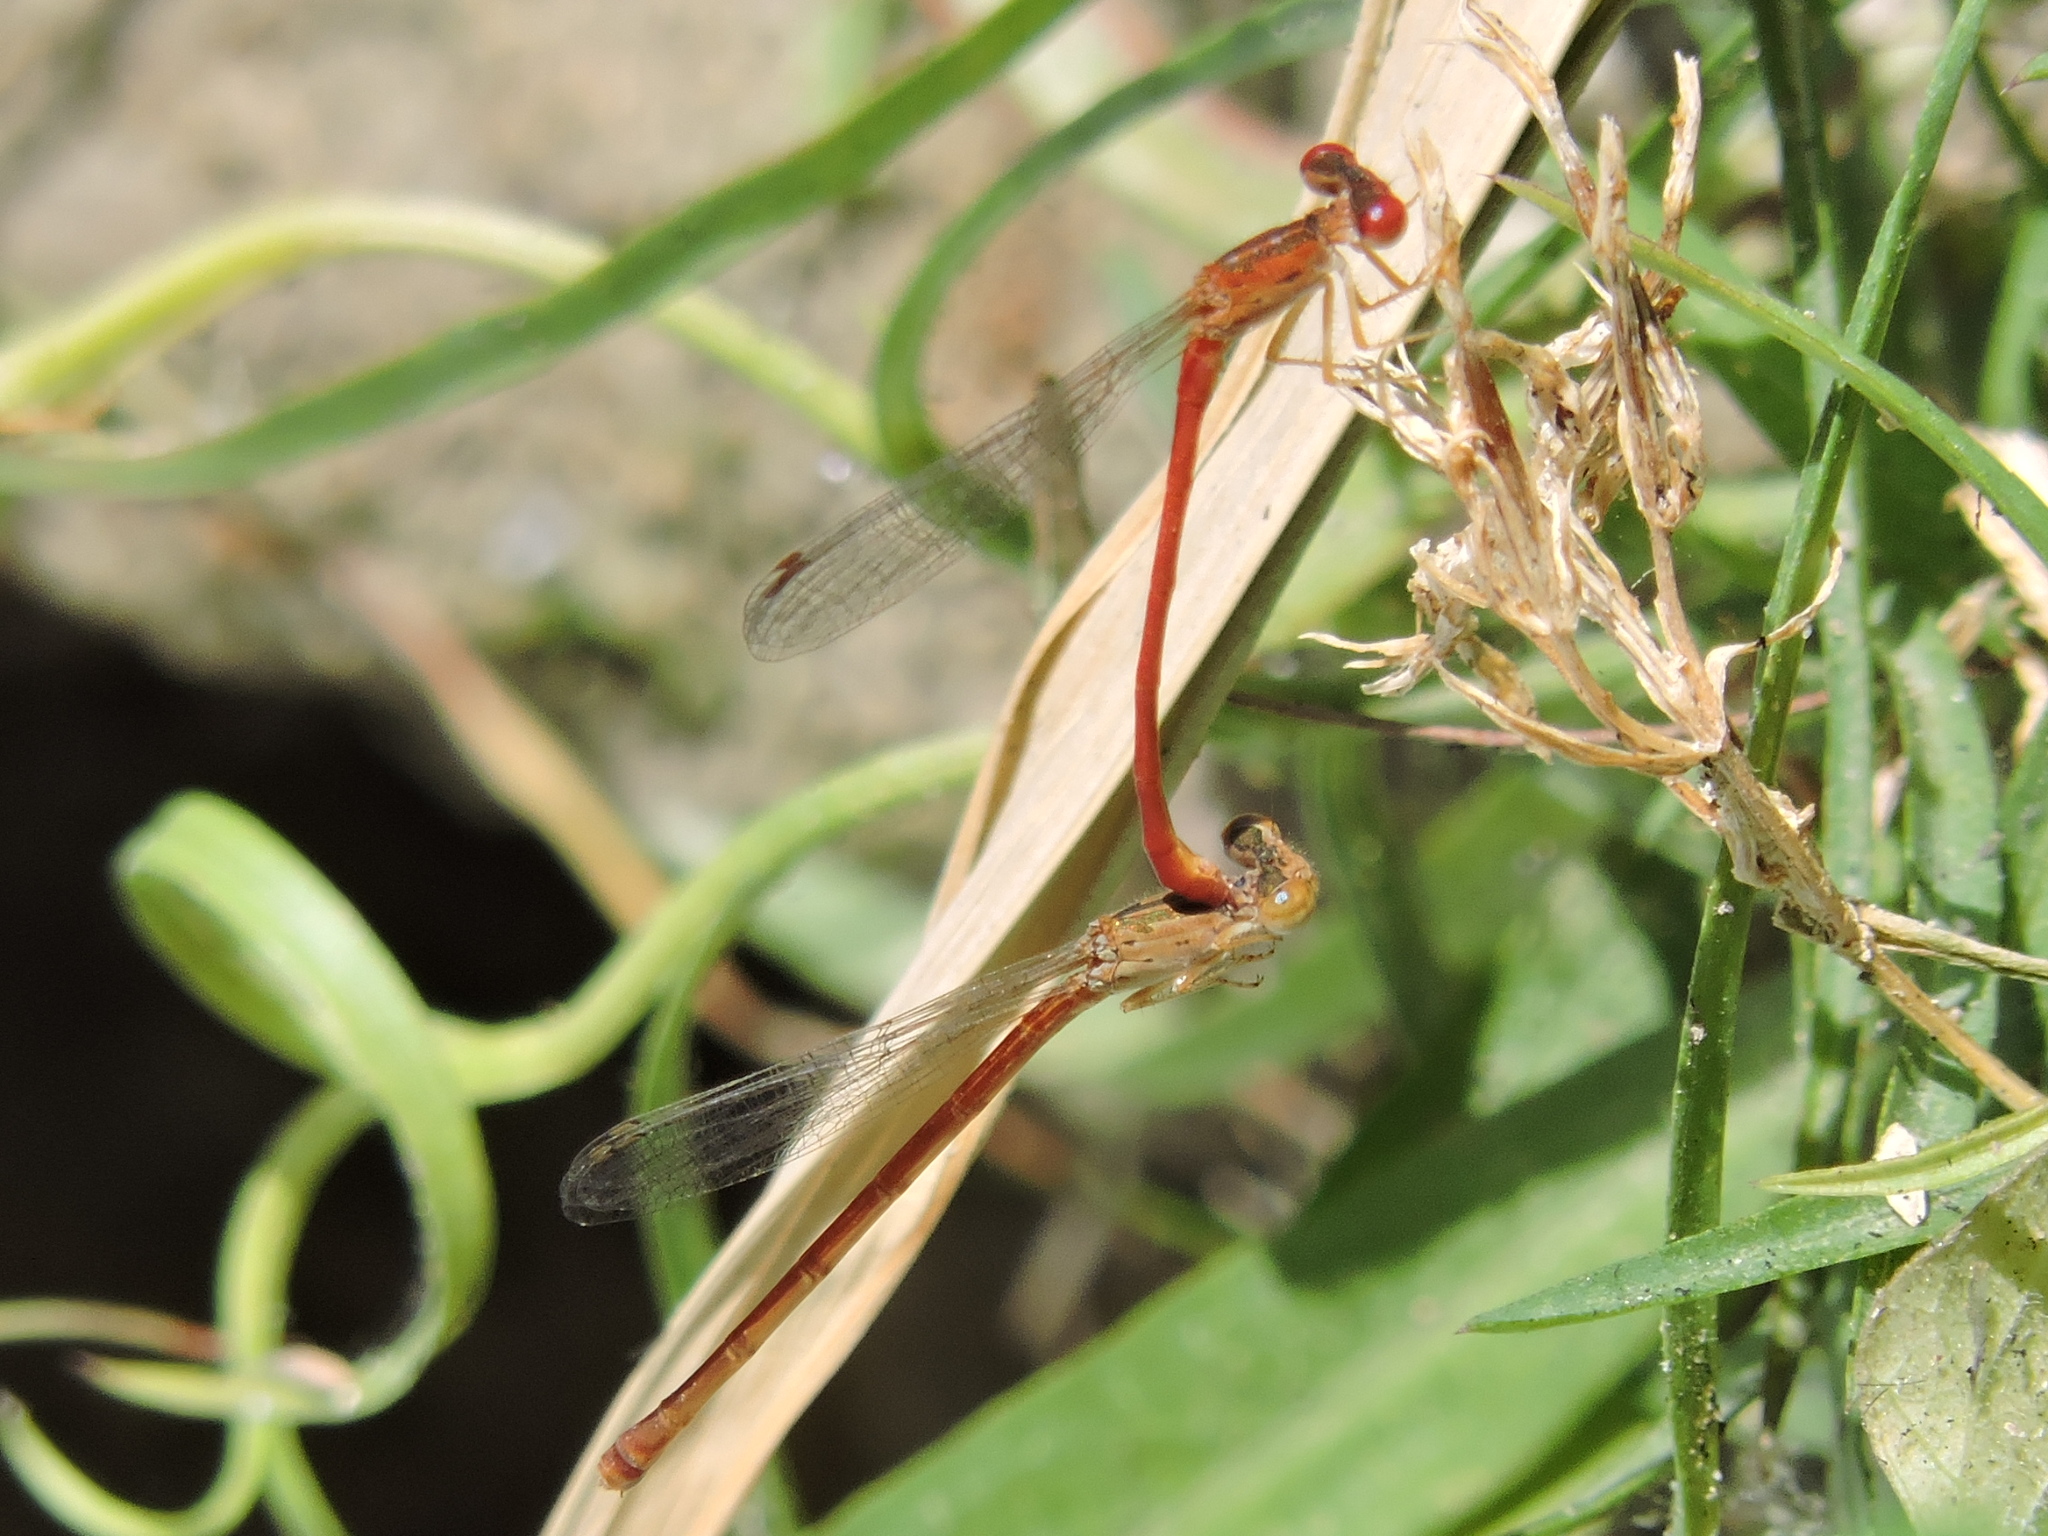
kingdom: Animalia
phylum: Arthropoda
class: Insecta
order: Odonata
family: Coenagrionidae
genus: Telebasis
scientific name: Telebasis salva
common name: Desert firetail
